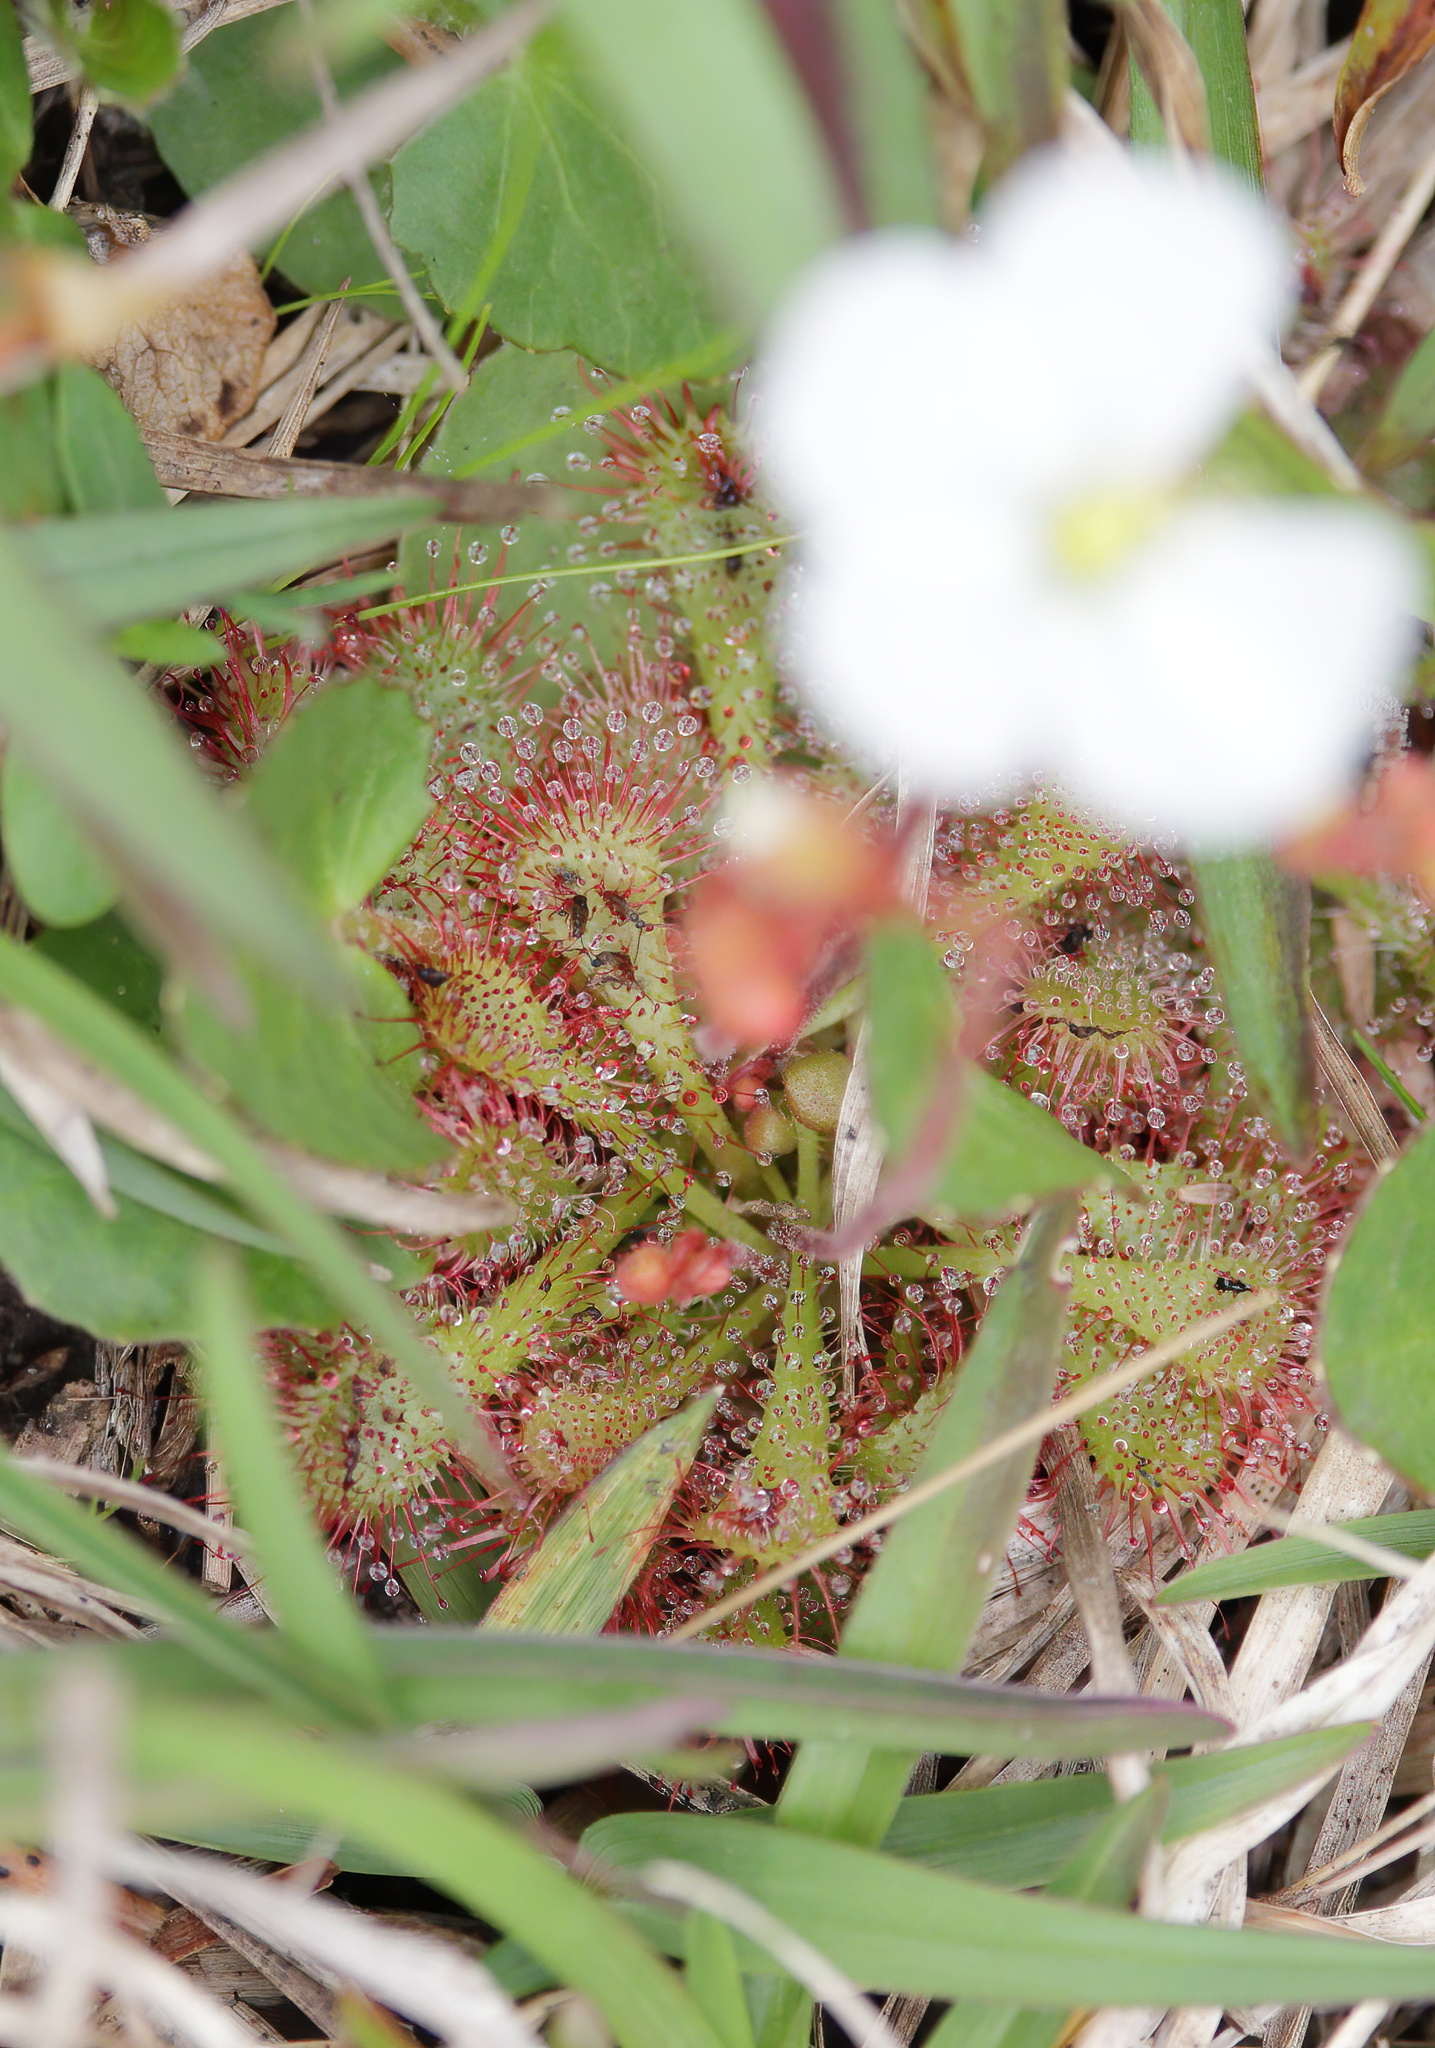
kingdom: Plantae
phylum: Tracheophyta
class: Magnoliopsida
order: Caryophyllales
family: Droseraceae
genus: Drosera
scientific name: Drosera brevifolia
